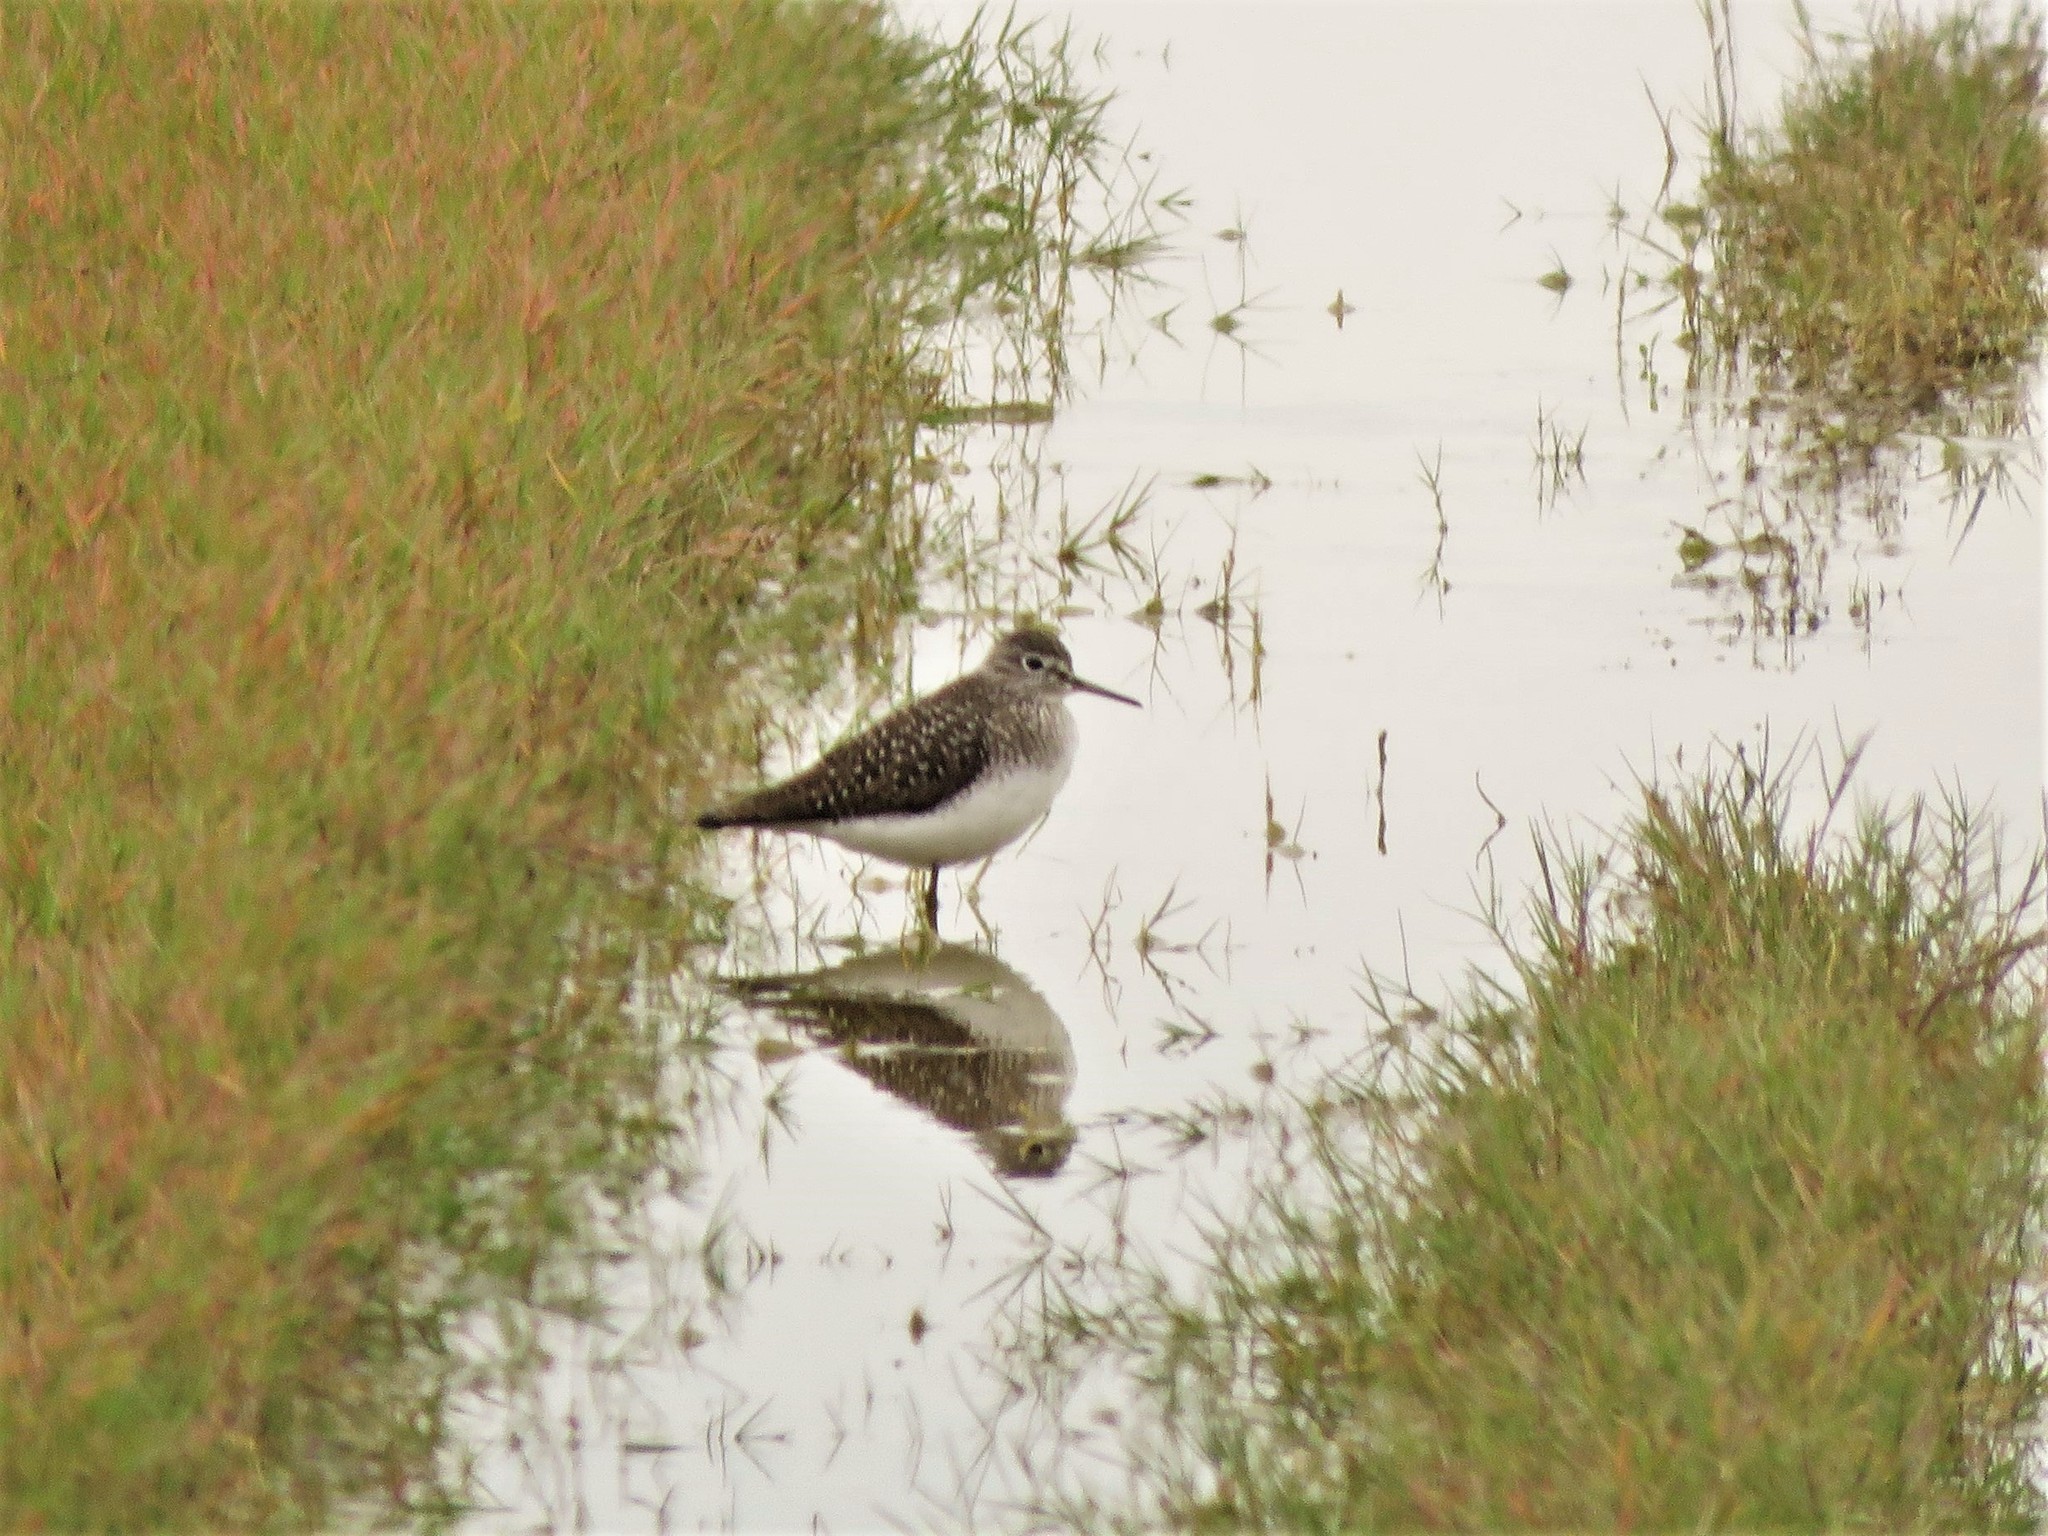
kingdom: Animalia
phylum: Chordata
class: Aves
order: Charadriiformes
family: Scolopacidae
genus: Tringa
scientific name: Tringa solitaria
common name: Solitary sandpiper
